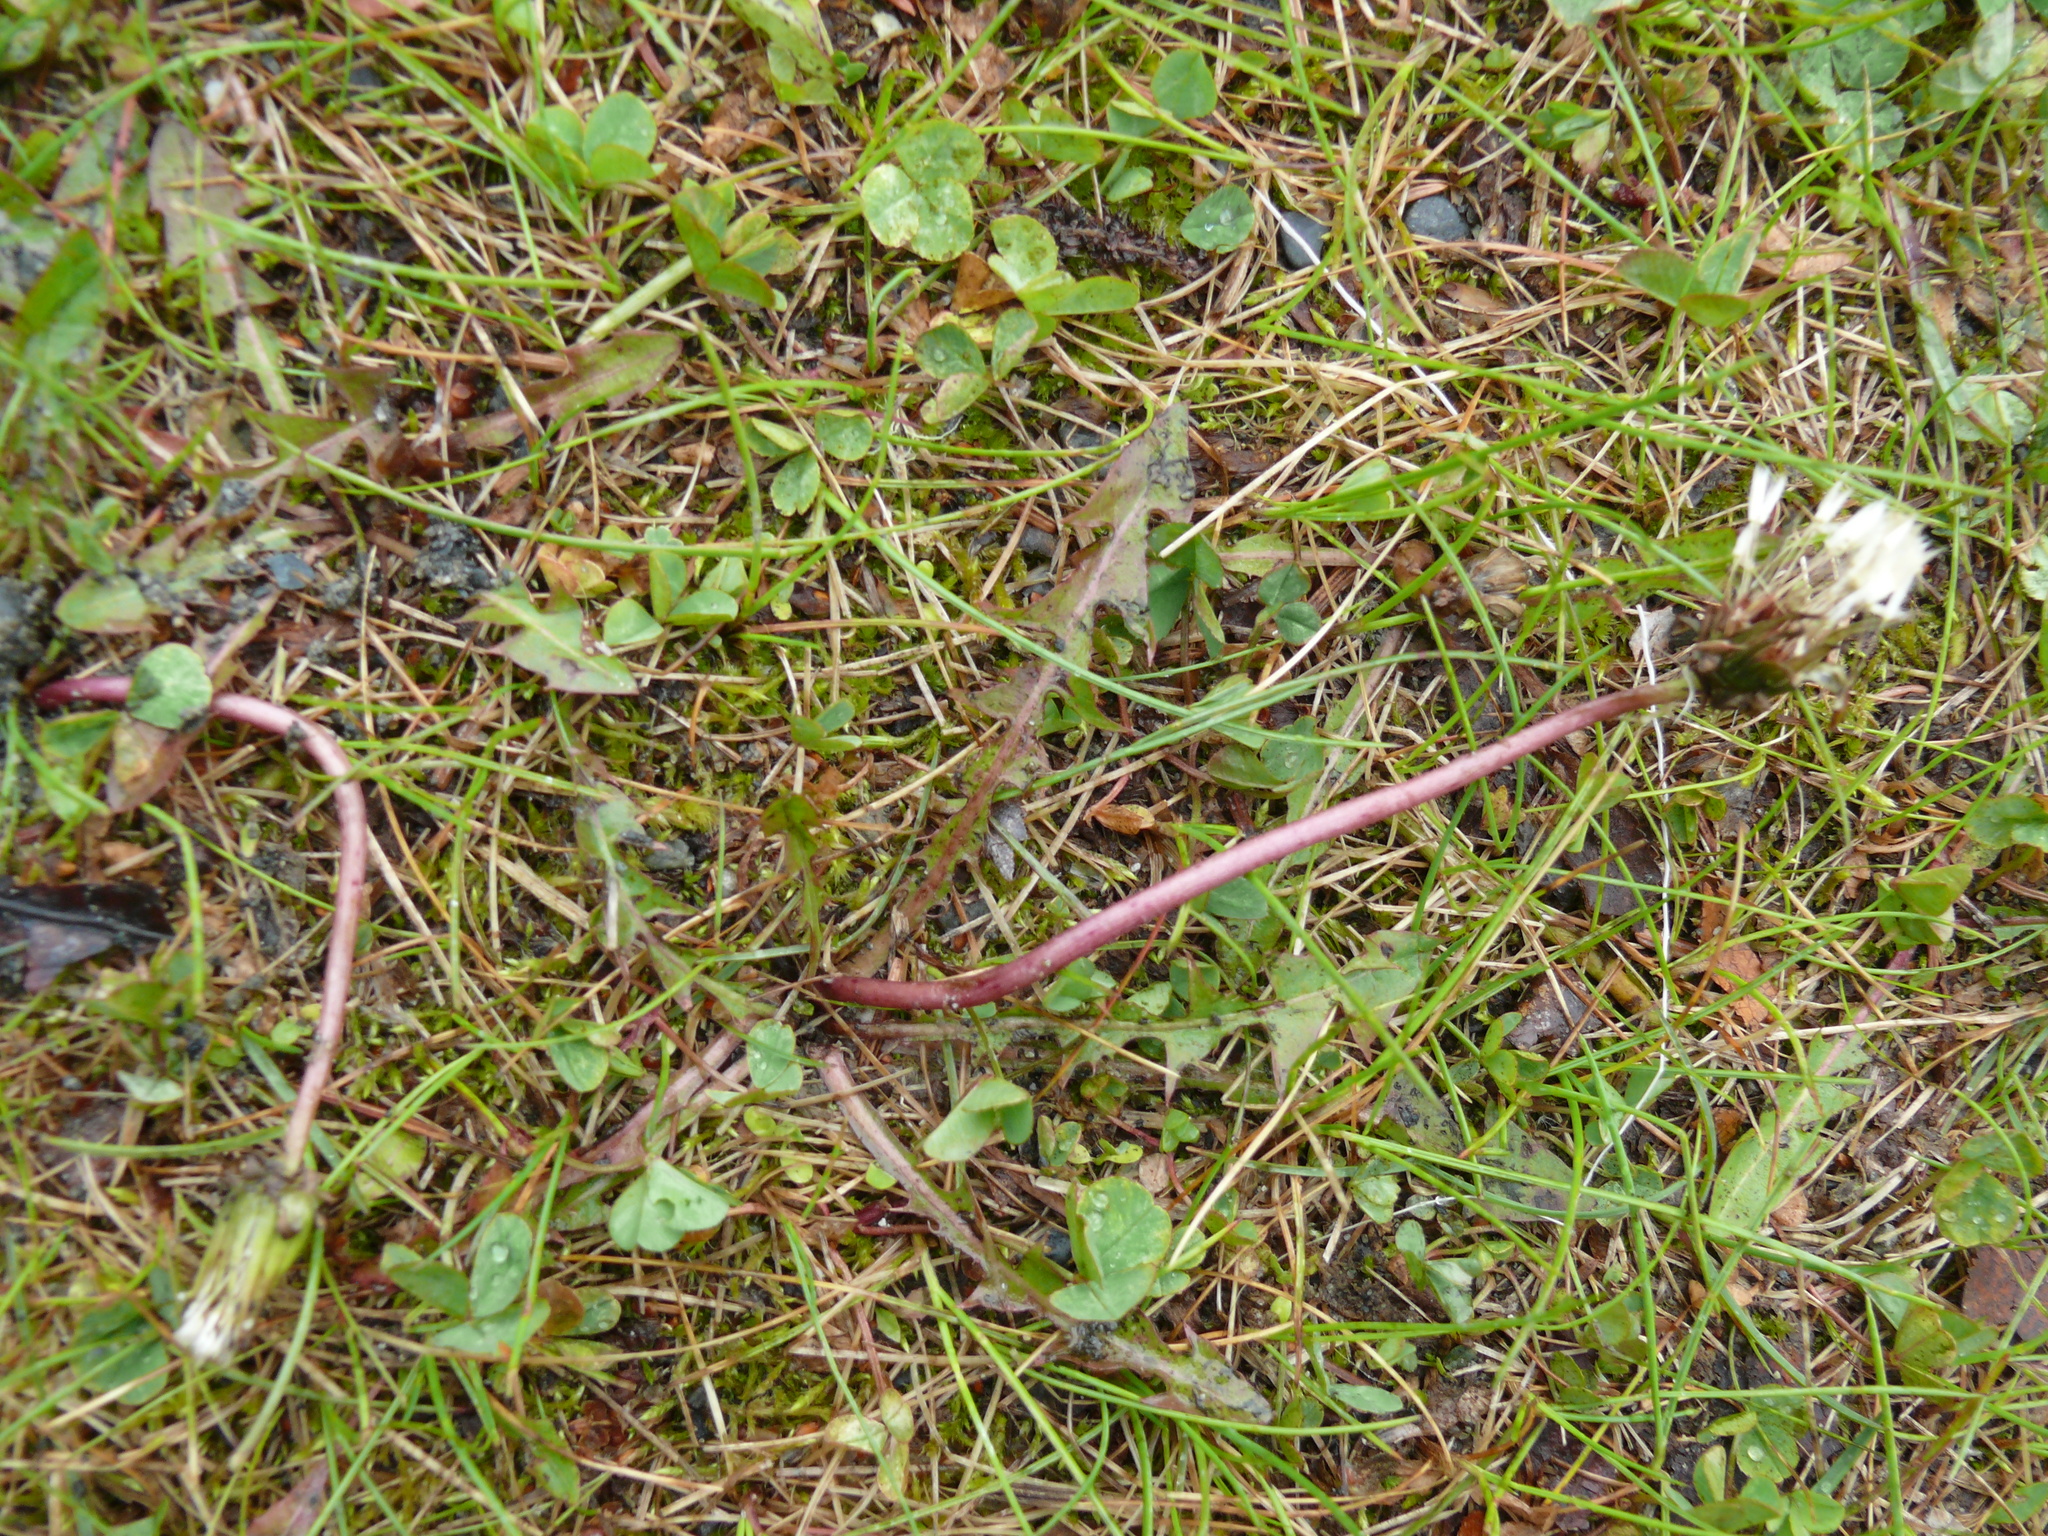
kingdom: Plantae
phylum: Tracheophyta
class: Magnoliopsida
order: Asterales
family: Asteraceae
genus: Taraxacum
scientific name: Taraxacum erythrospermum
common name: Rock dandelion
